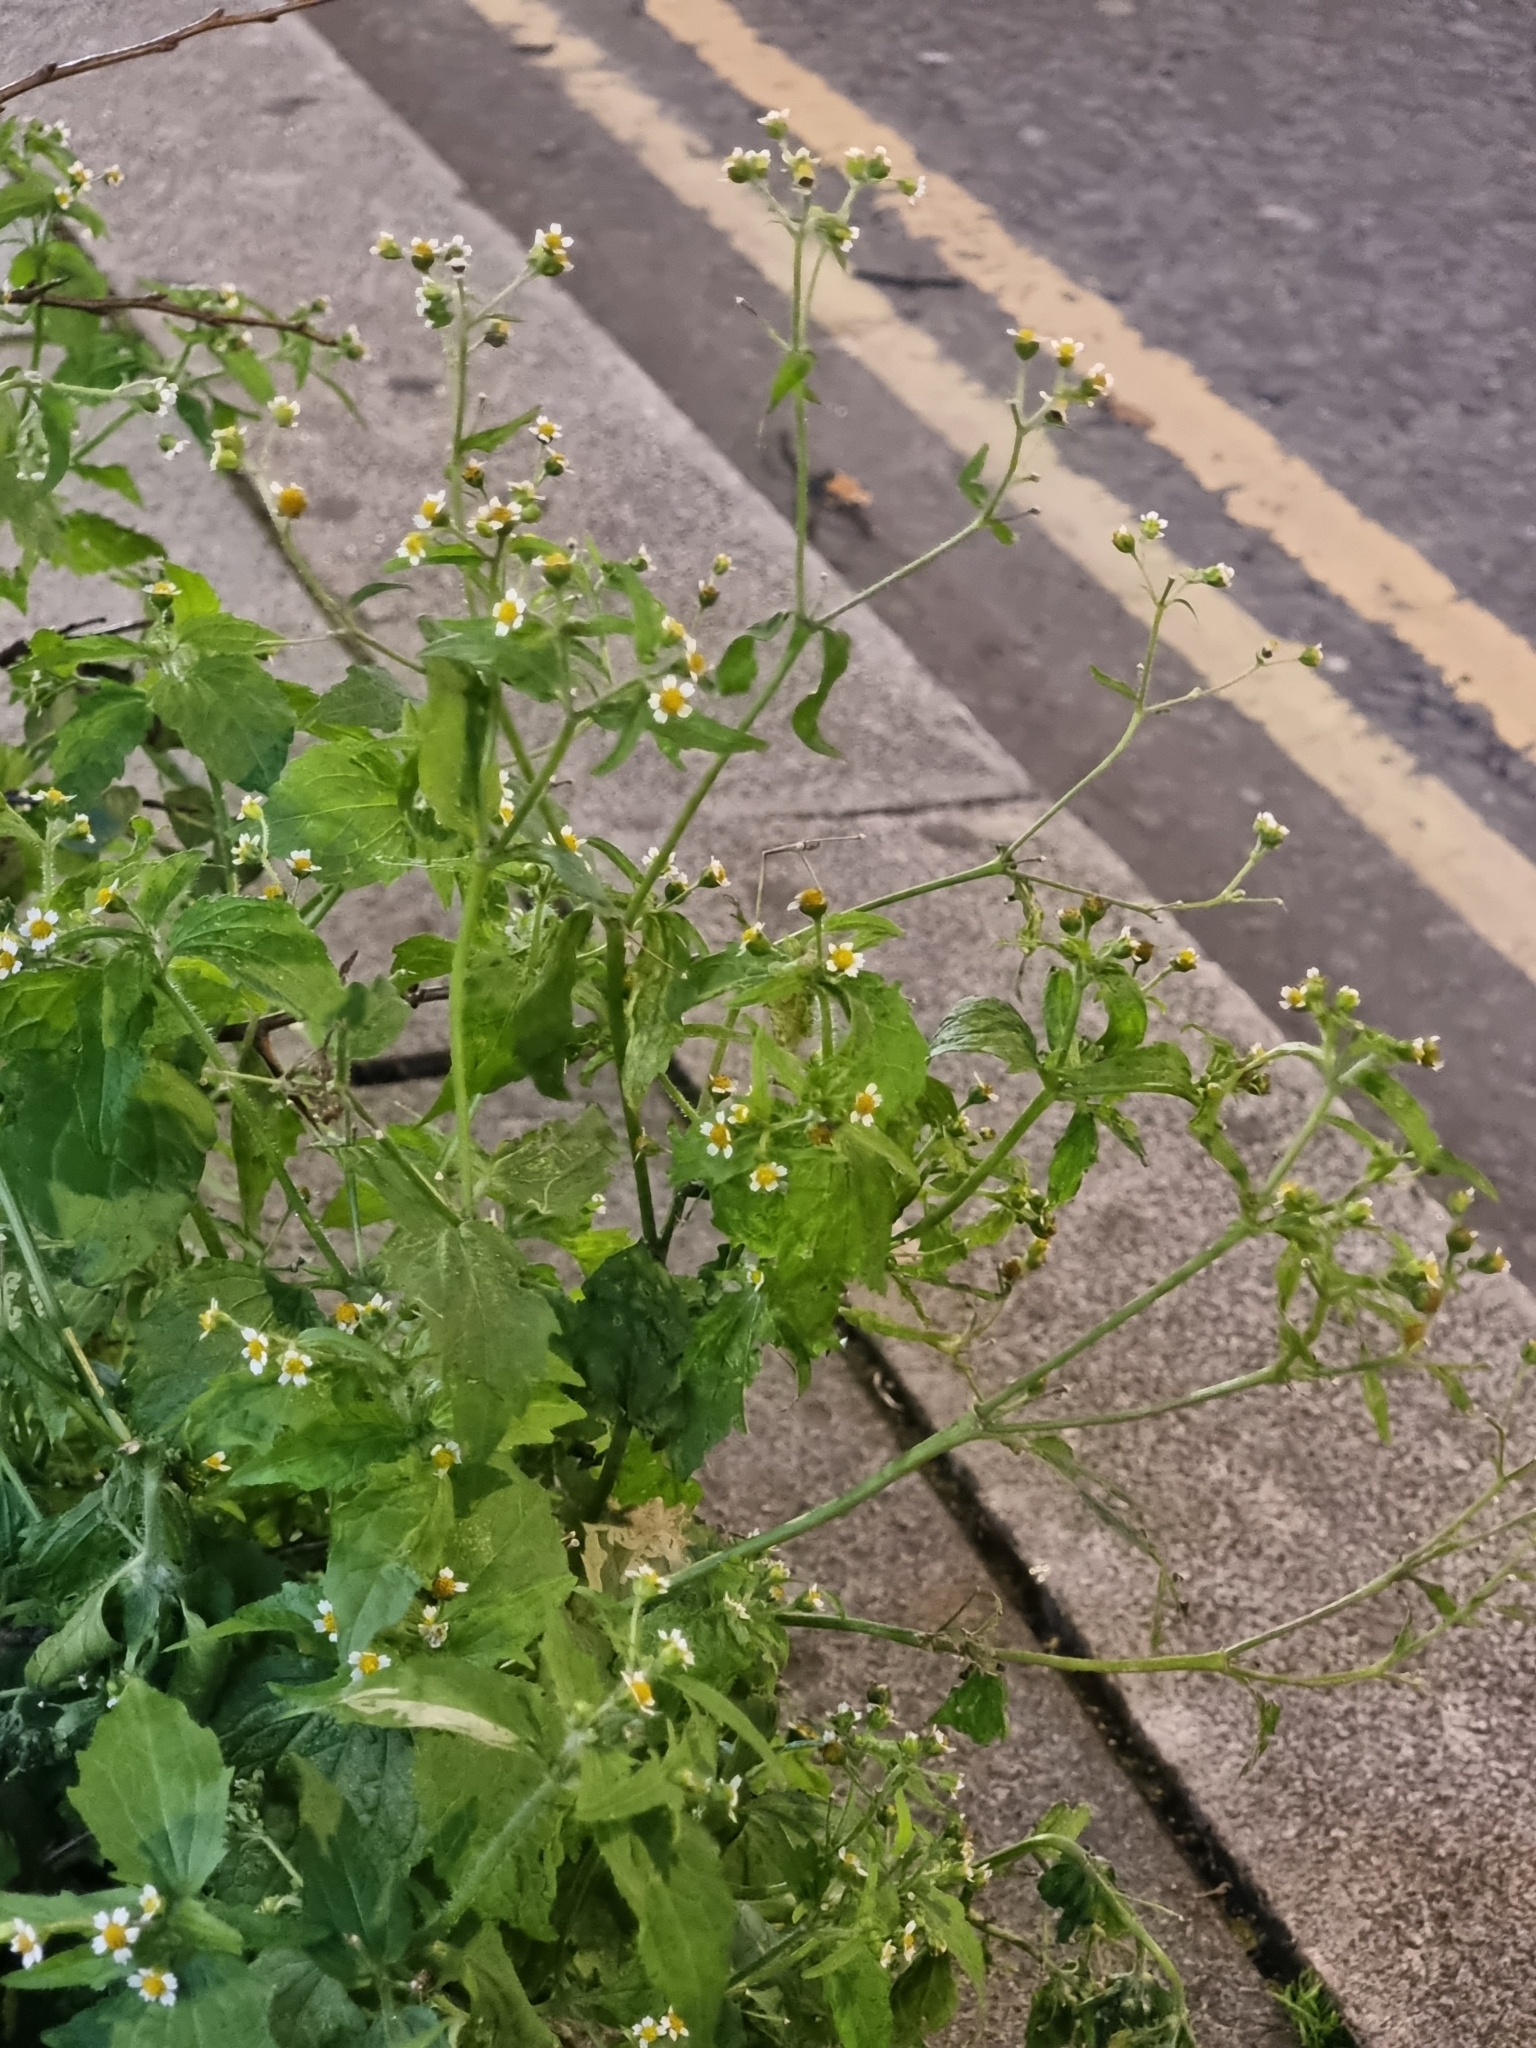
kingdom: Plantae
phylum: Tracheophyta
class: Magnoliopsida
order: Asterales
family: Asteraceae
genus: Galinsoga
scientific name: Galinsoga quadriradiata
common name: Shaggy soldier
